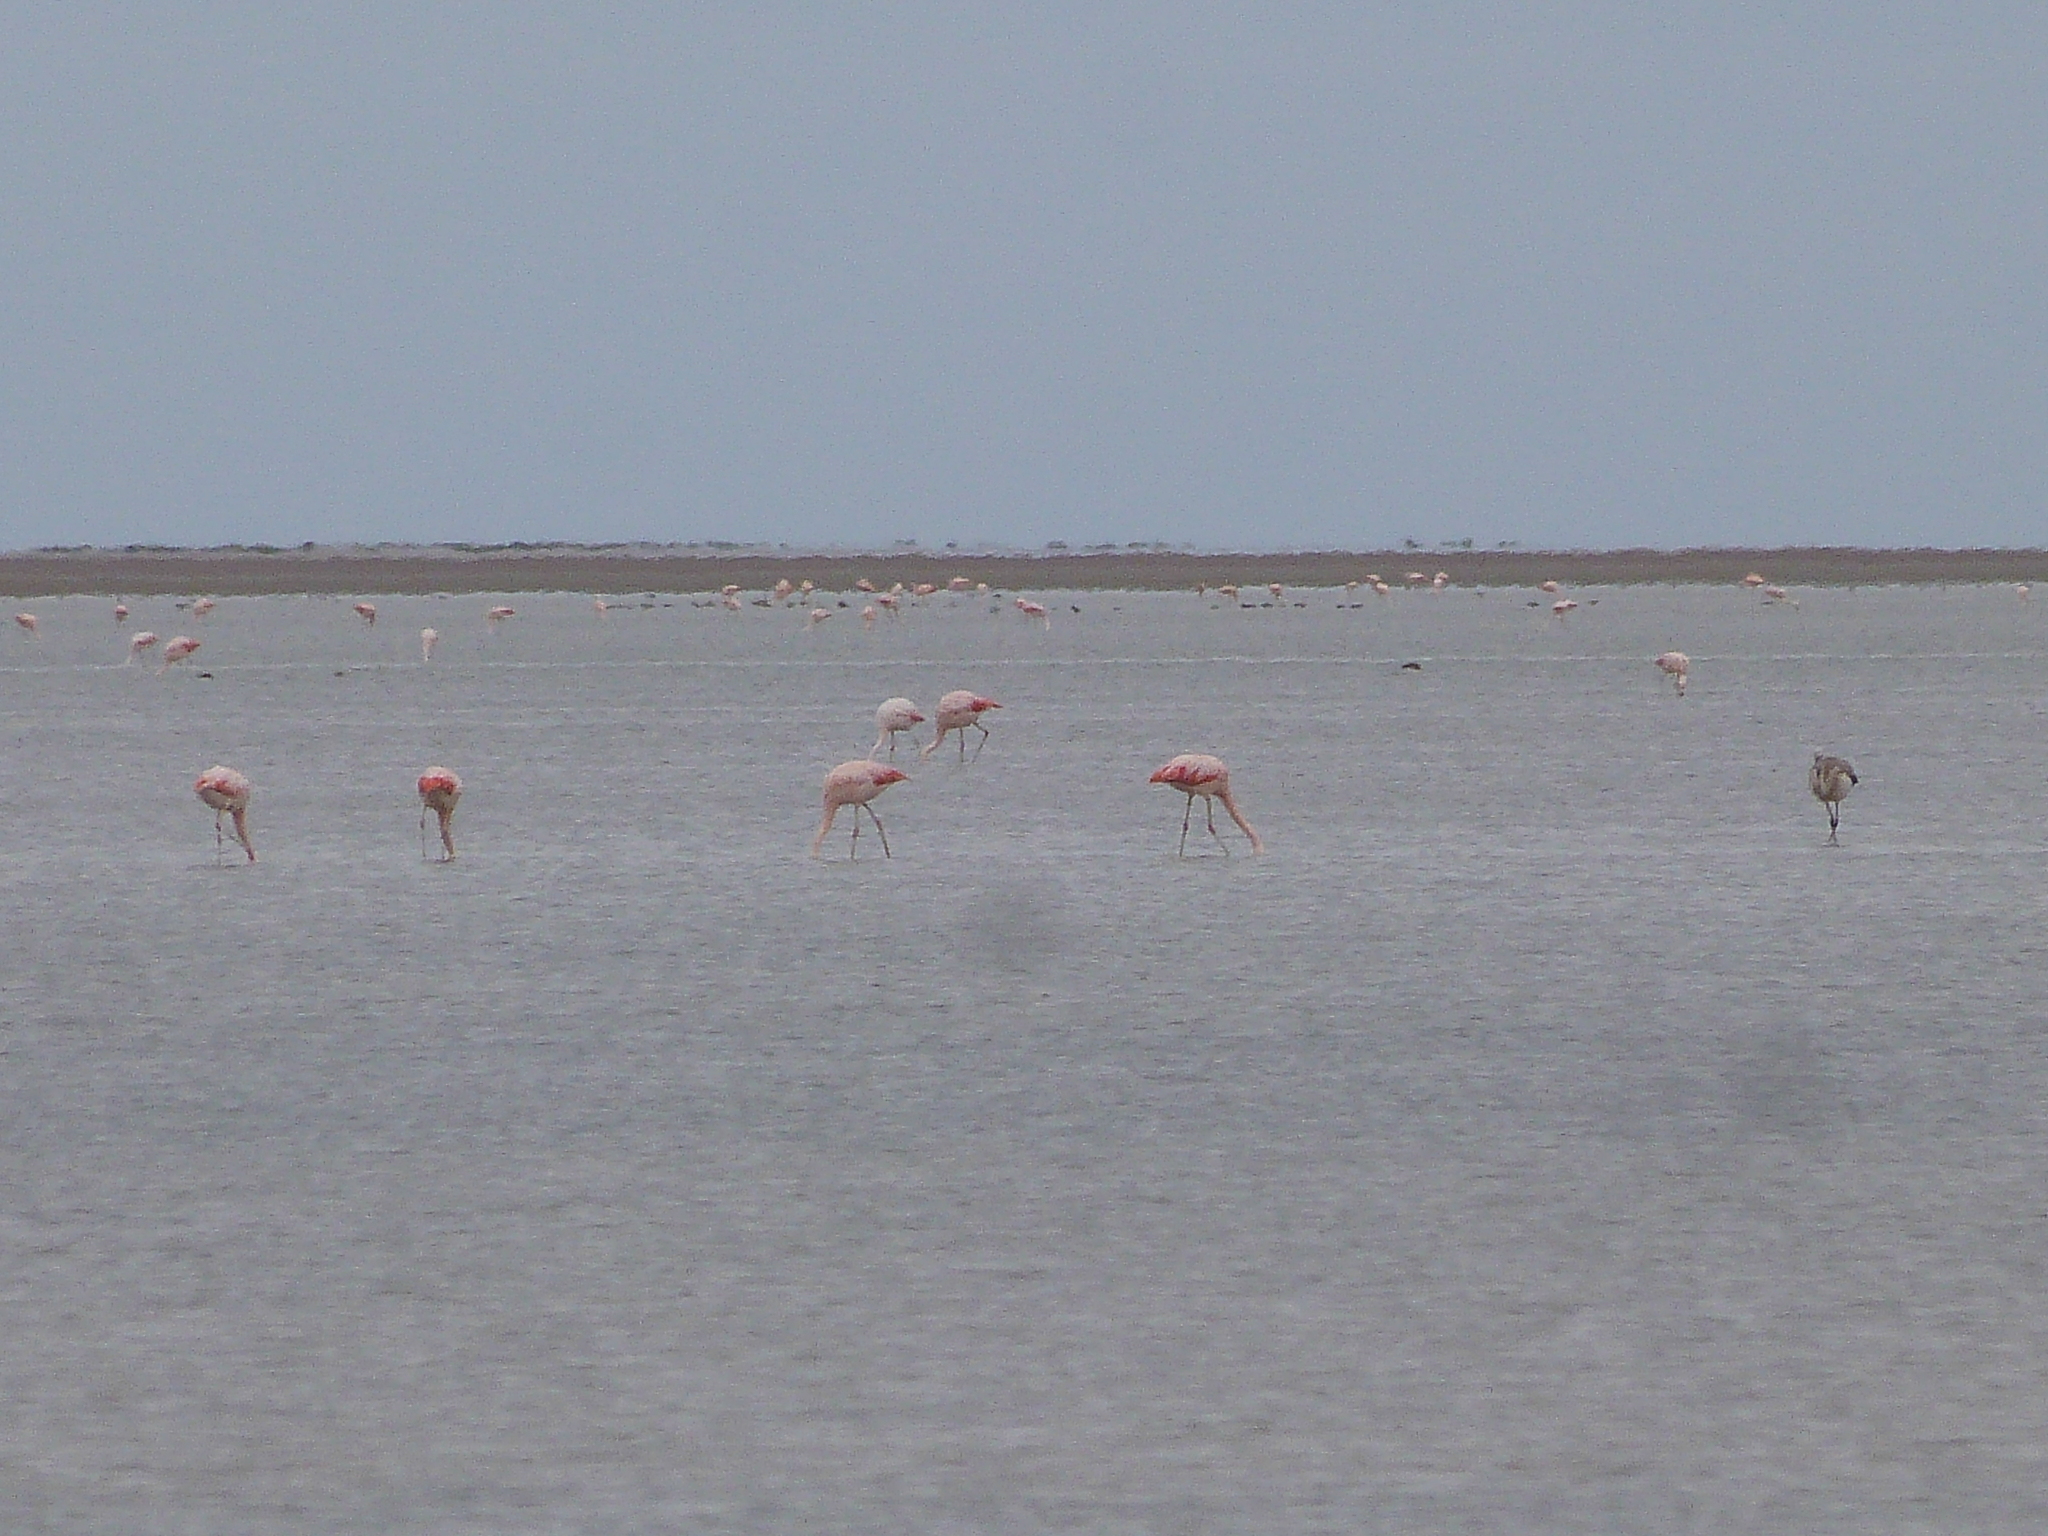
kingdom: Animalia
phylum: Chordata
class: Aves
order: Phoenicopteriformes
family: Phoenicopteridae
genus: Phoenicopterus
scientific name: Phoenicopterus chilensis
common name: Chilean flamingo
